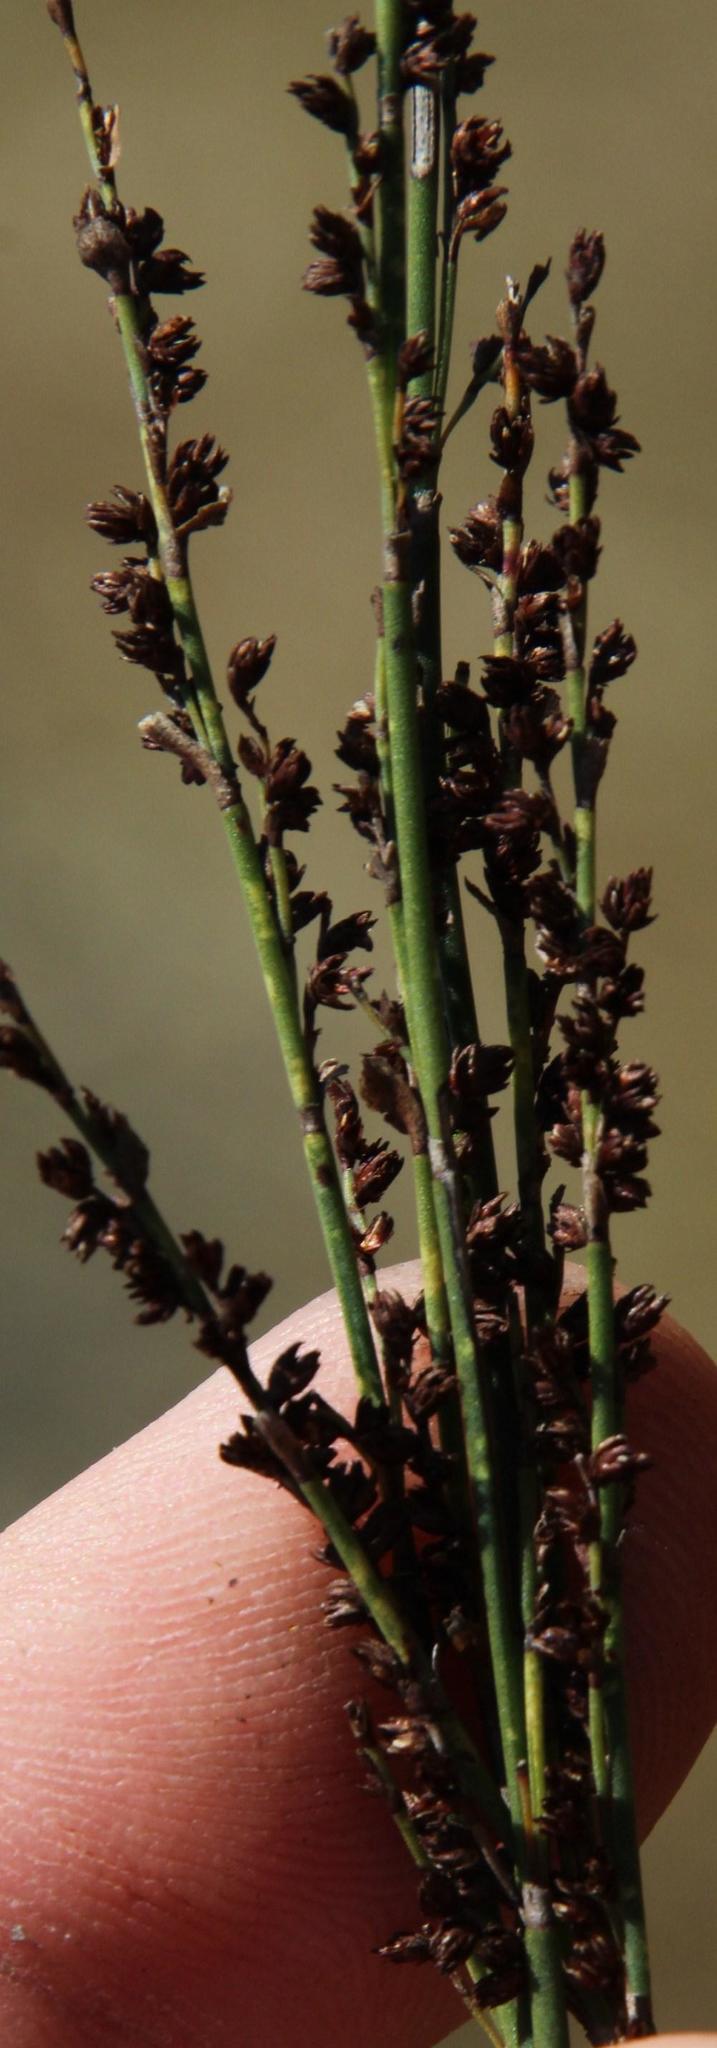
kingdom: Plantae
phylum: Tracheophyta
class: Liliopsida
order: Poales
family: Restionaceae
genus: Elegia
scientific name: Elegia recta
